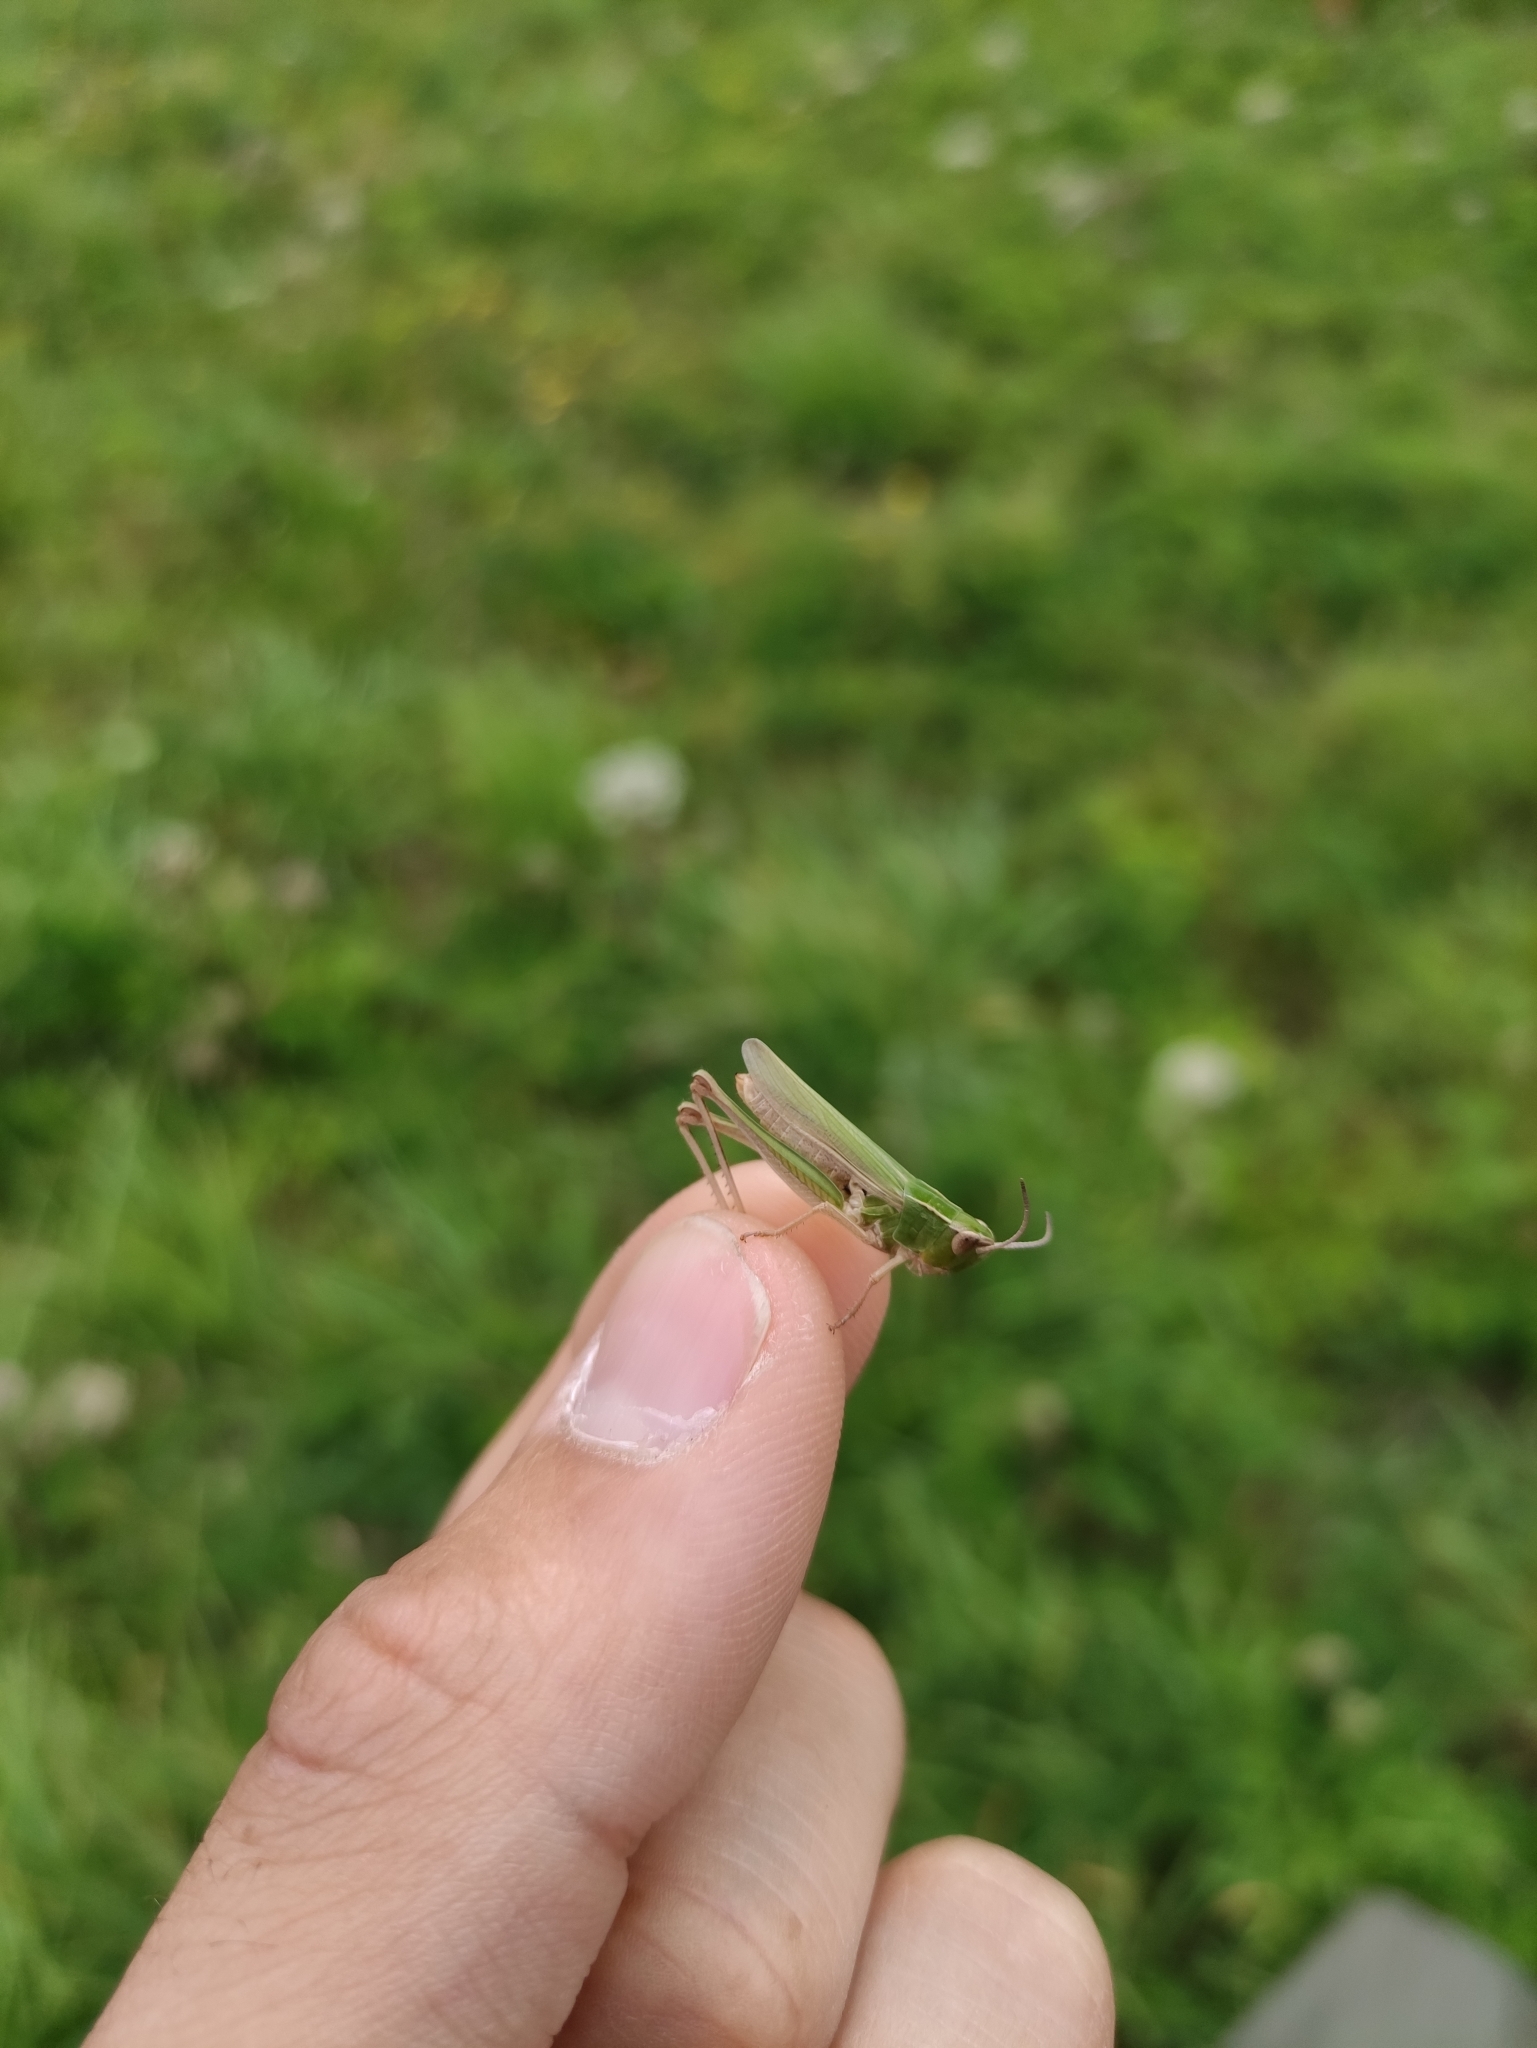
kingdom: Animalia
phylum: Arthropoda
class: Insecta
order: Orthoptera
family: Acrididae
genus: Chorthippus
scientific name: Chorthippus albomarginatus
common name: Lesser marsh grasshopper
